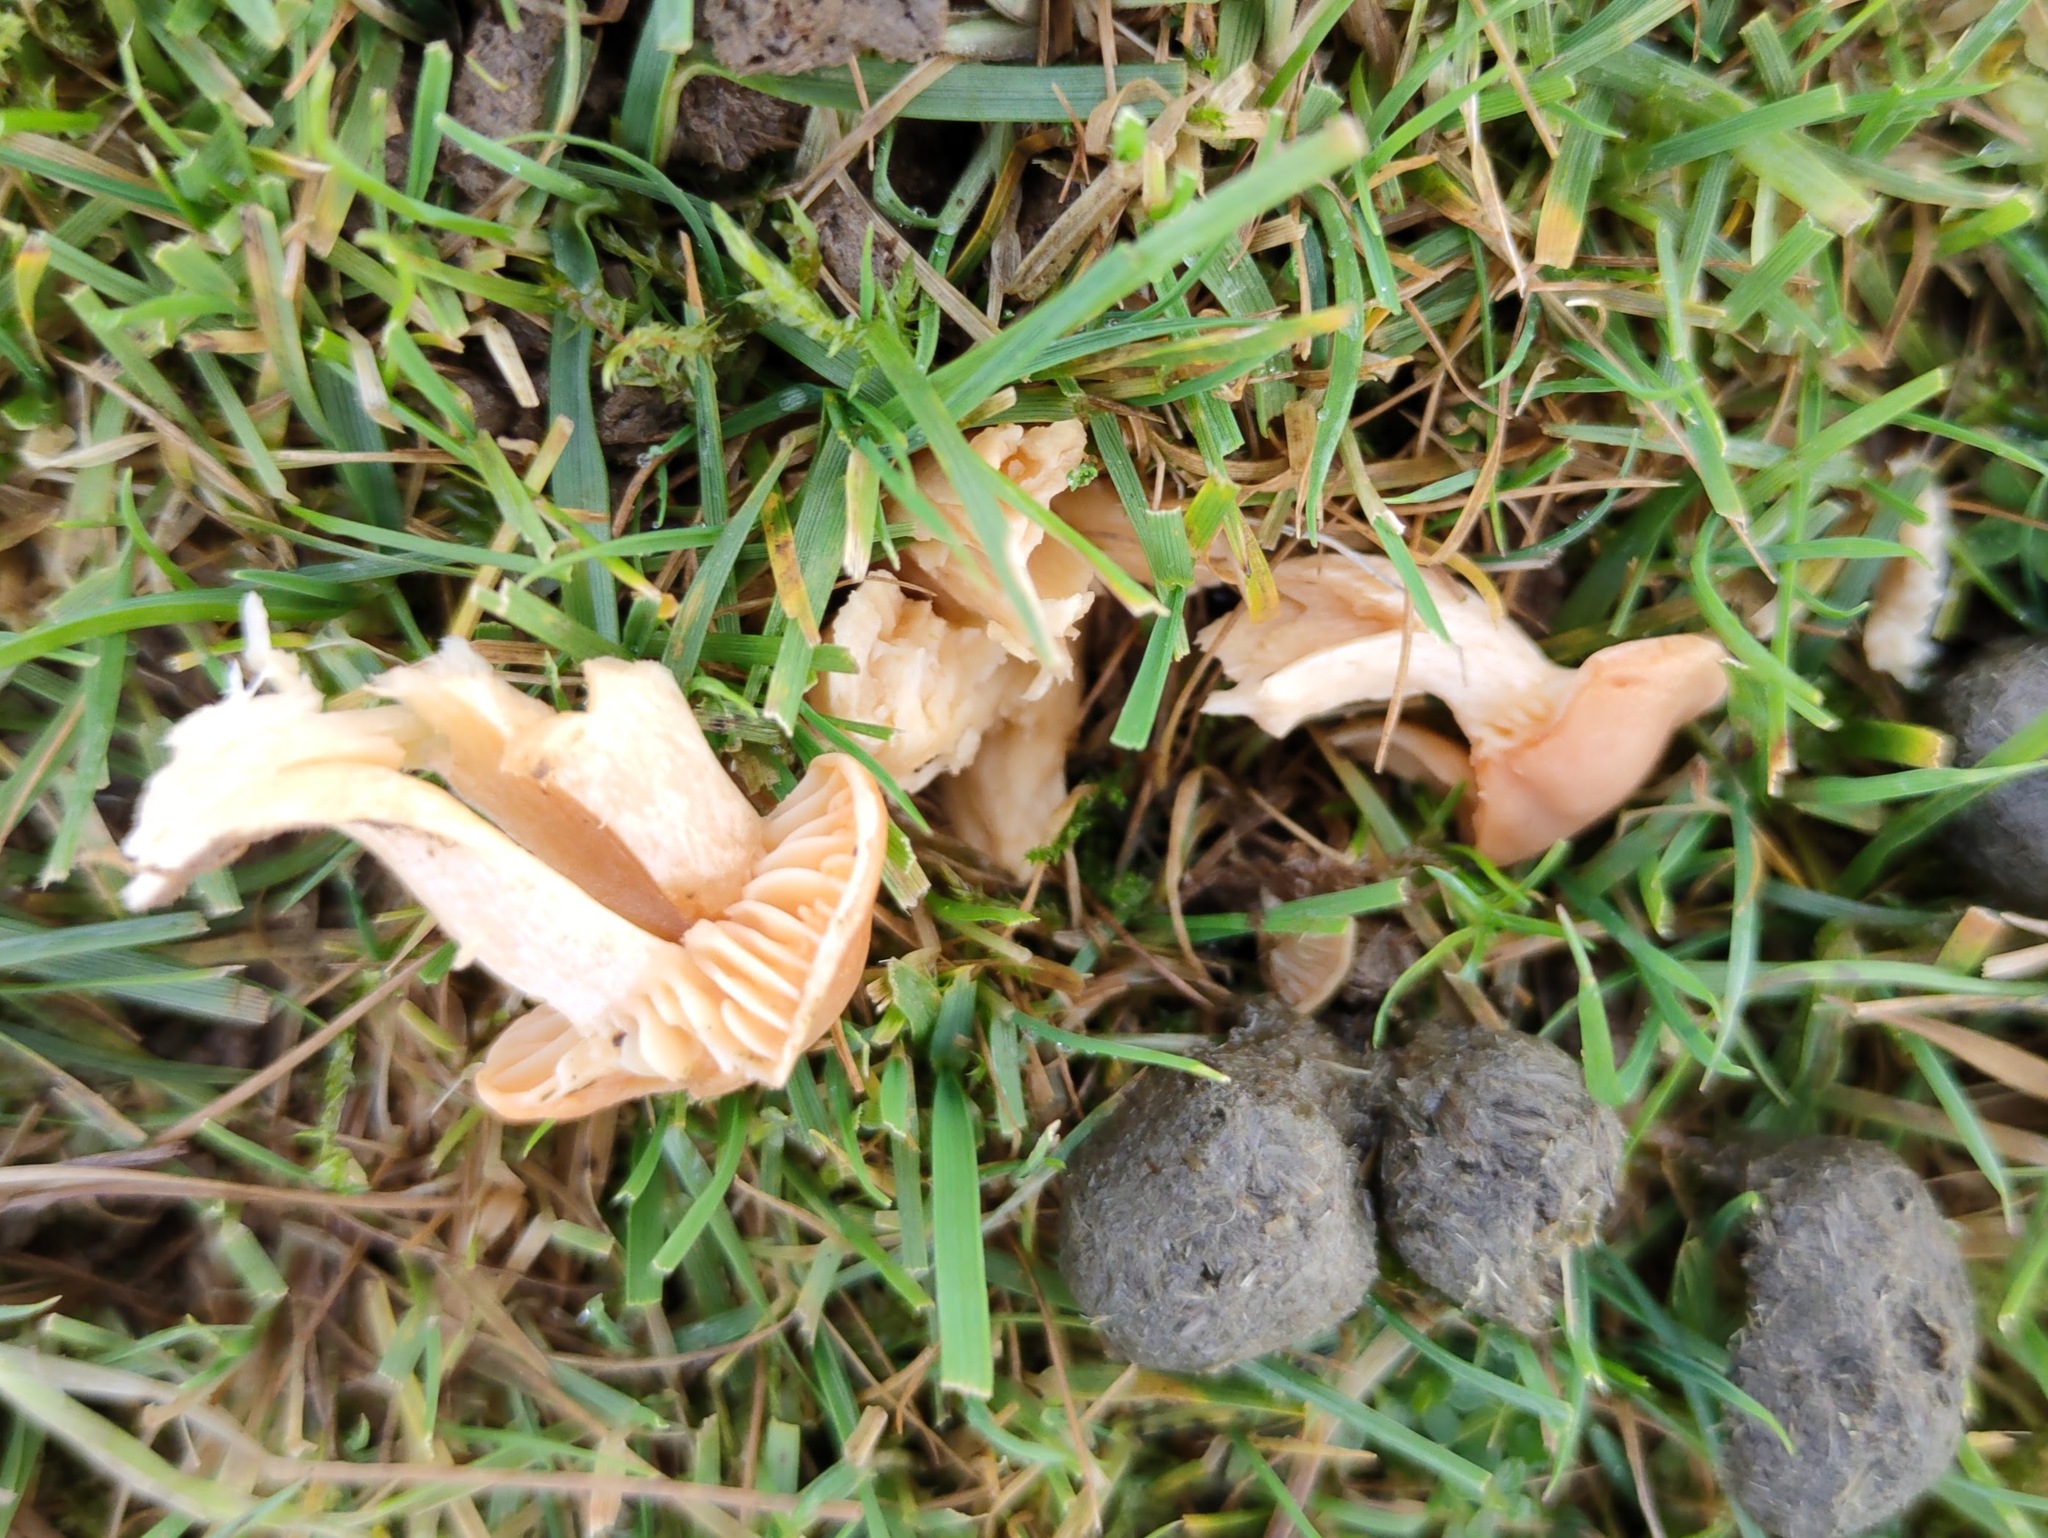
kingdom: Fungi
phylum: Basidiomycota
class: Agaricomycetes
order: Agaricales
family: Hygrophoraceae
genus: Cuphophyllus
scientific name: Cuphophyllus pratensis
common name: Meadow waxcap
